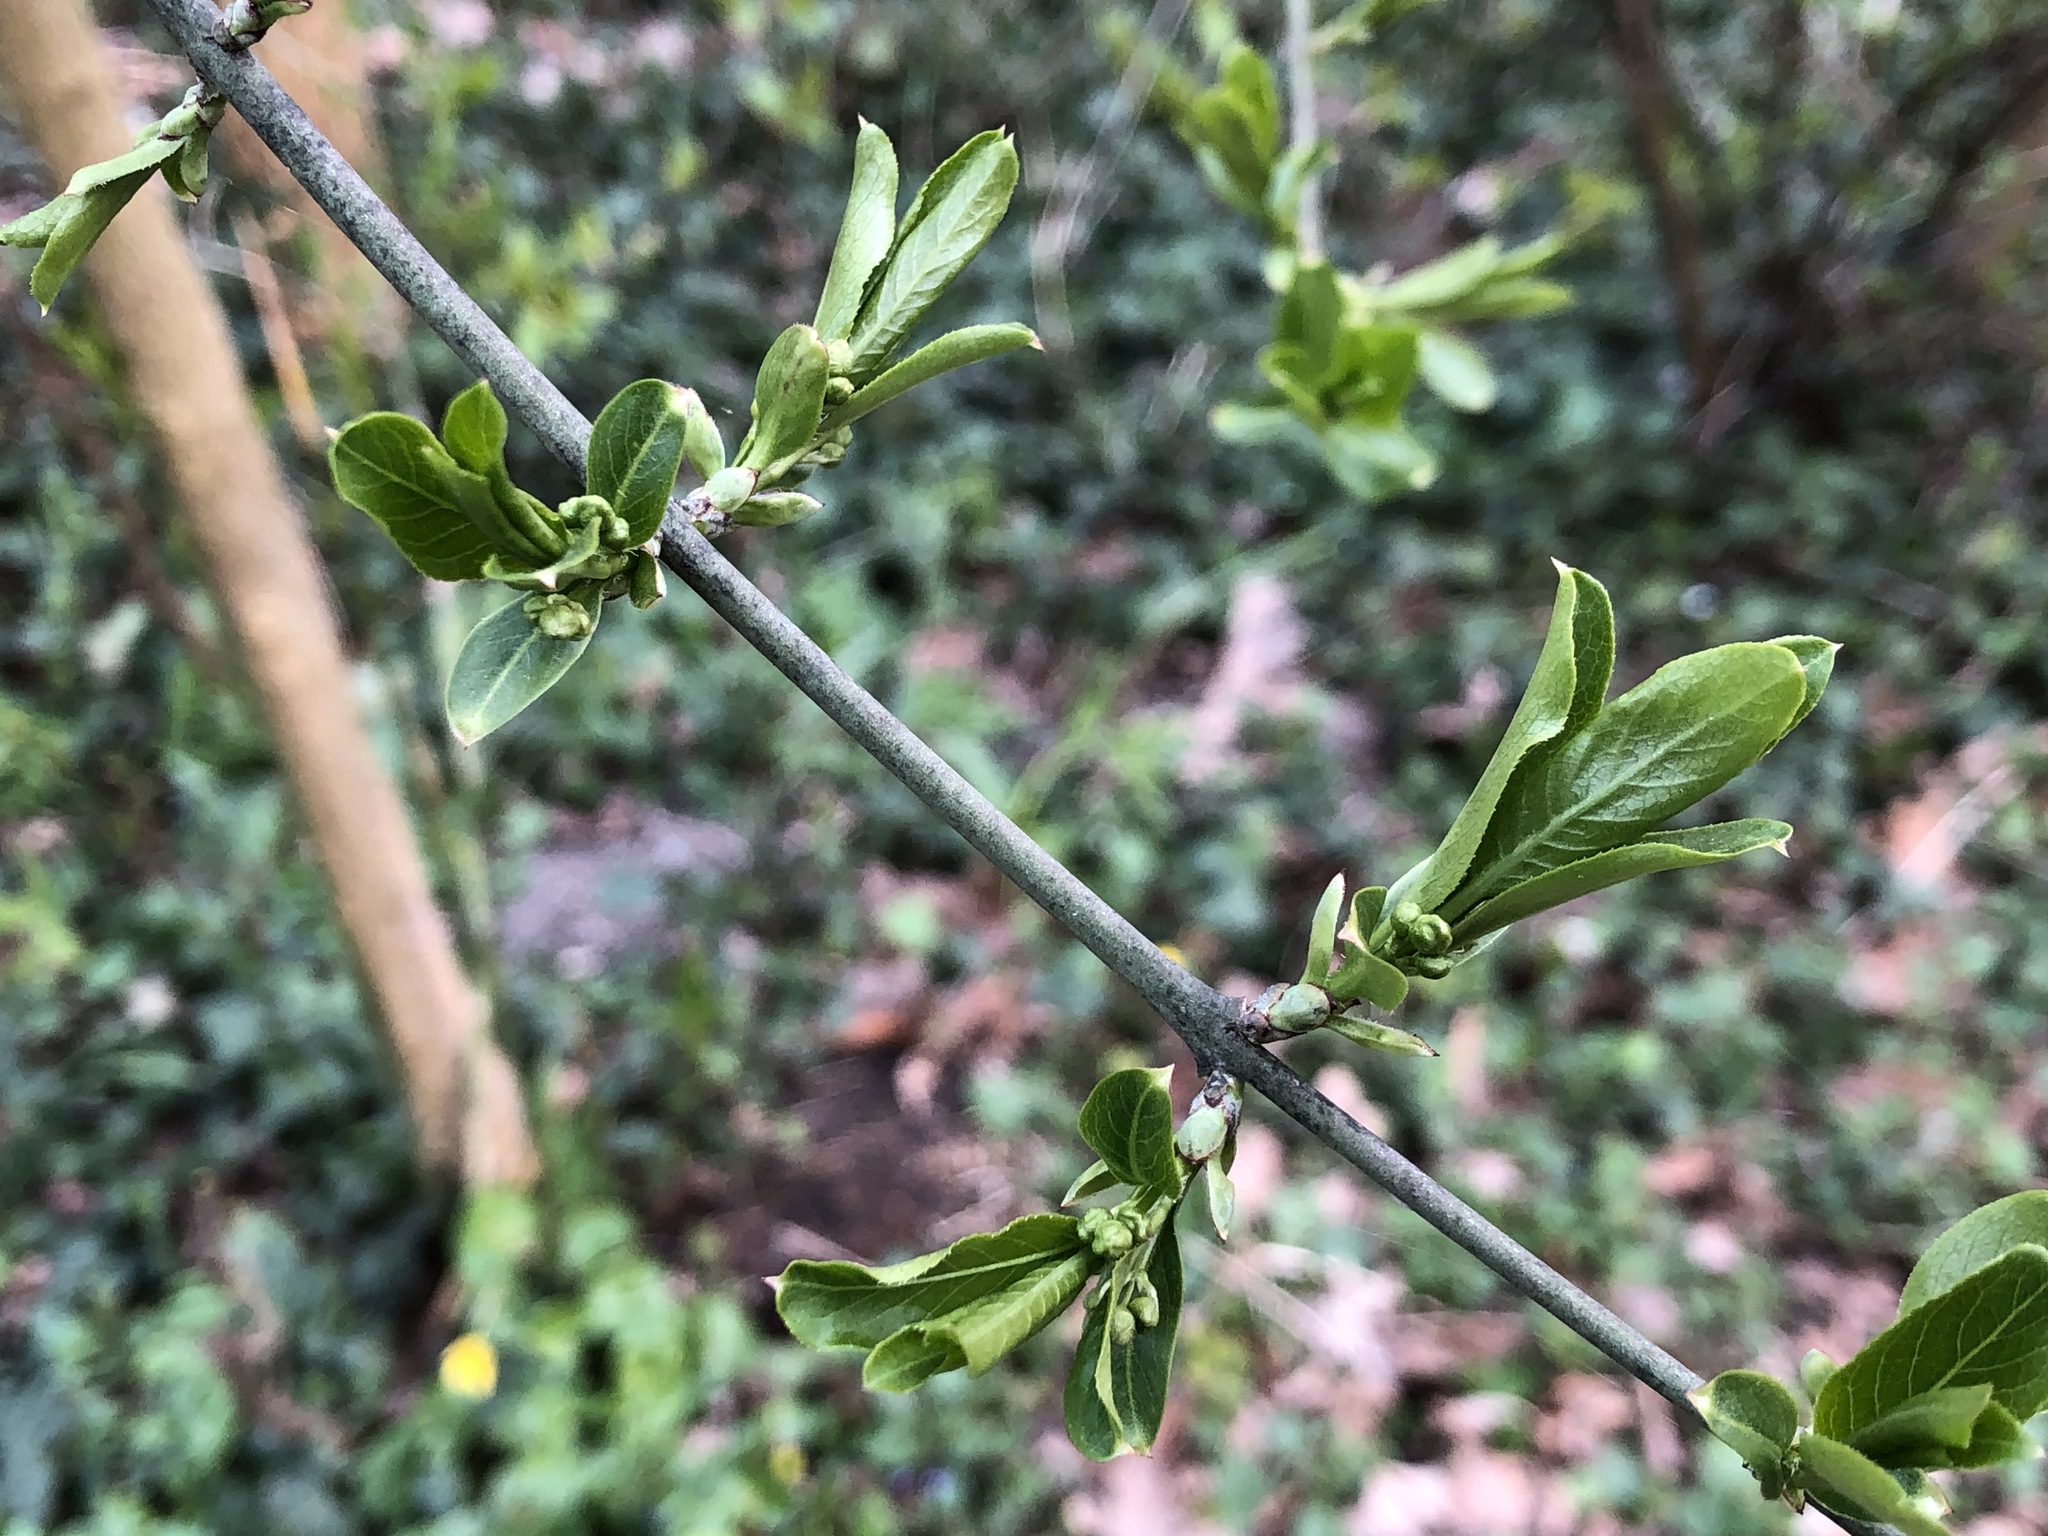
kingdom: Plantae
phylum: Tracheophyta
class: Magnoliopsida
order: Celastrales
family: Celastraceae
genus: Euonymus
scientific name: Euonymus europaeus
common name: Spindle
